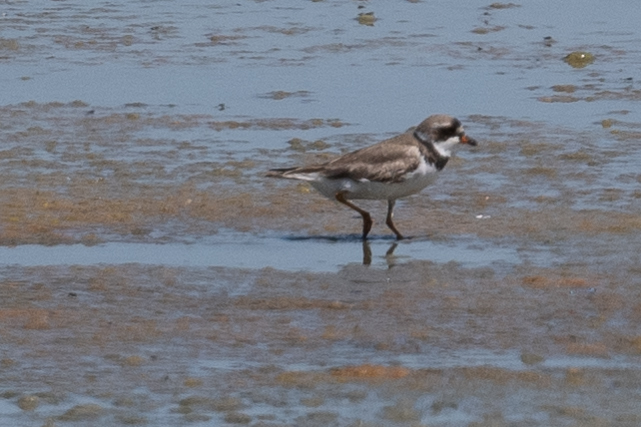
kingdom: Animalia
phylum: Chordata
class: Aves
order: Charadriiformes
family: Charadriidae
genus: Charadrius
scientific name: Charadrius semipalmatus
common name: Semipalmated plover
